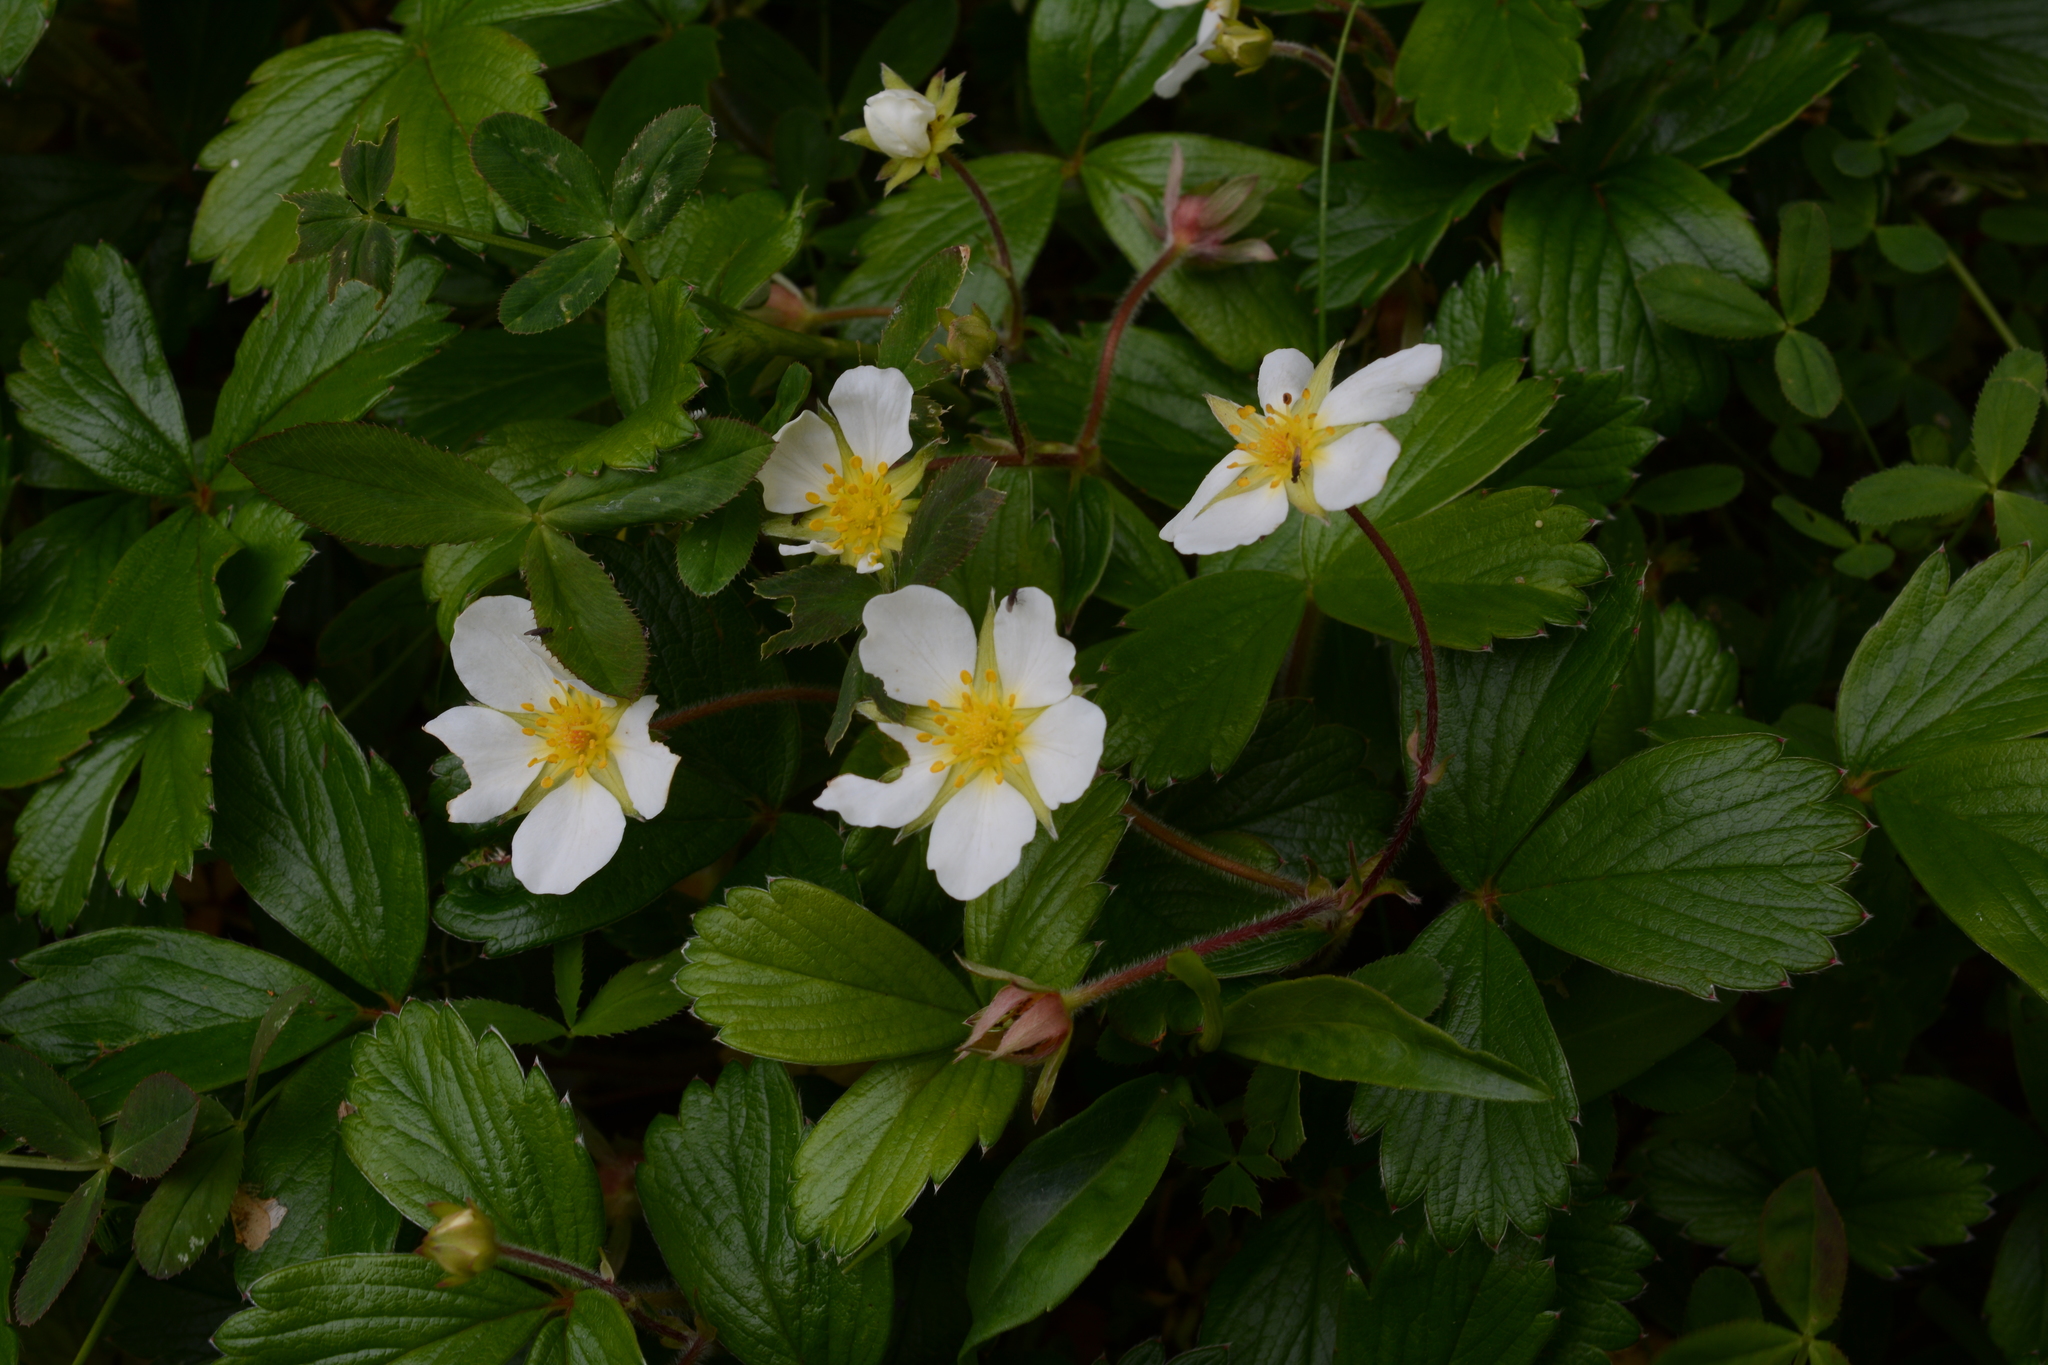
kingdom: Plantae
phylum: Tracheophyta
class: Magnoliopsida
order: Rosales
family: Rosaceae
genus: Fragaria
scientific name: Fragaria chiloensis
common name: Beach strawberry
